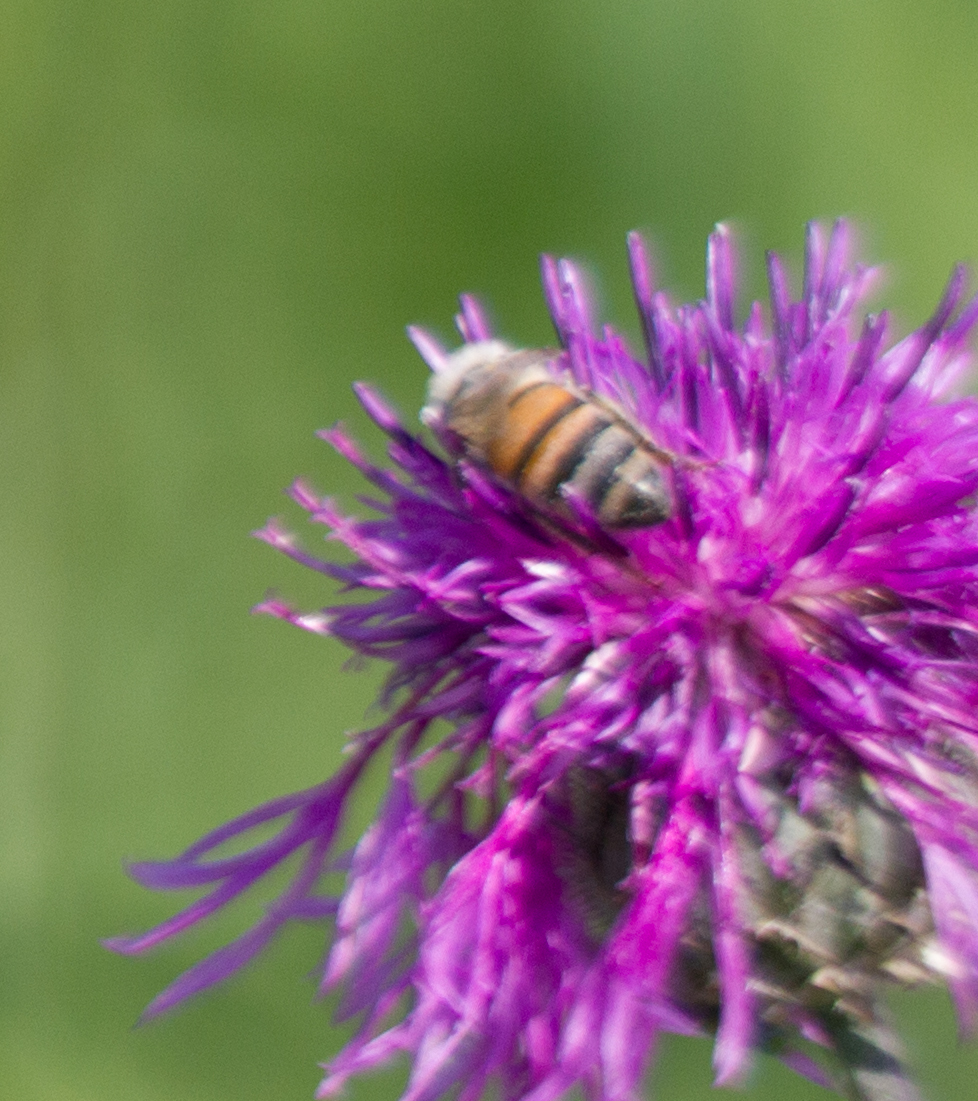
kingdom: Animalia
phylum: Arthropoda
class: Insecta
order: Hymenoptera
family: Apidae
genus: Apis
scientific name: Apis mellifera
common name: Honey bee
